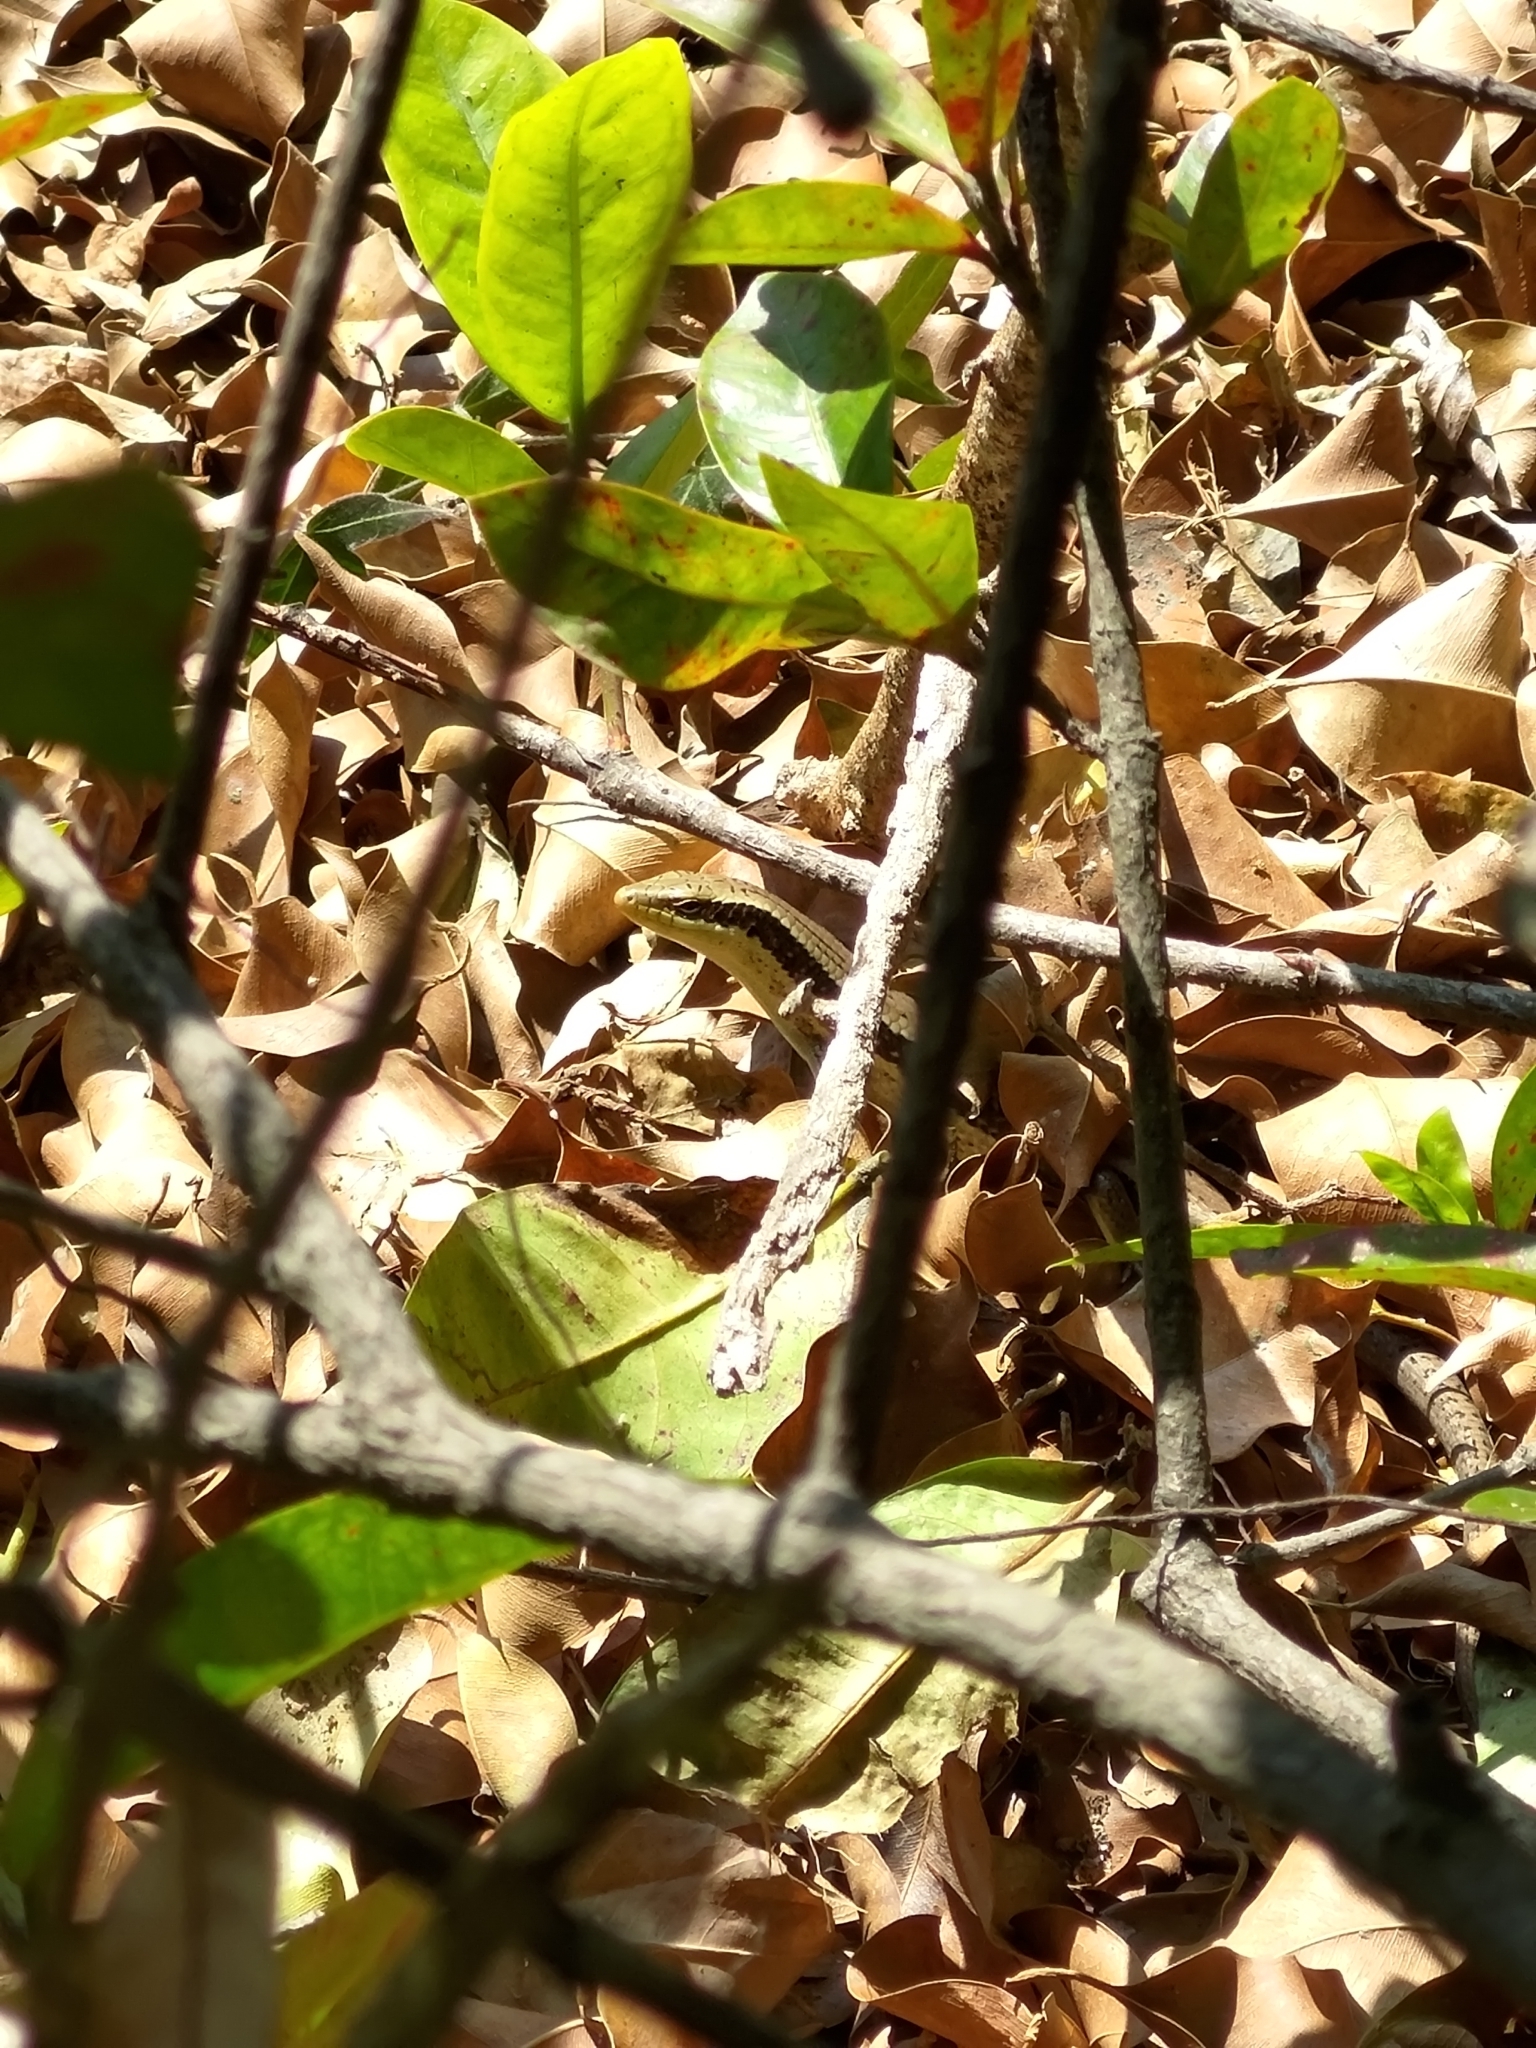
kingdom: Animalia
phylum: Chordata
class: Squamata
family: Scincidae
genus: Eutropis
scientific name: Eutropis longicaudata
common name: Long-tailed sun skink
